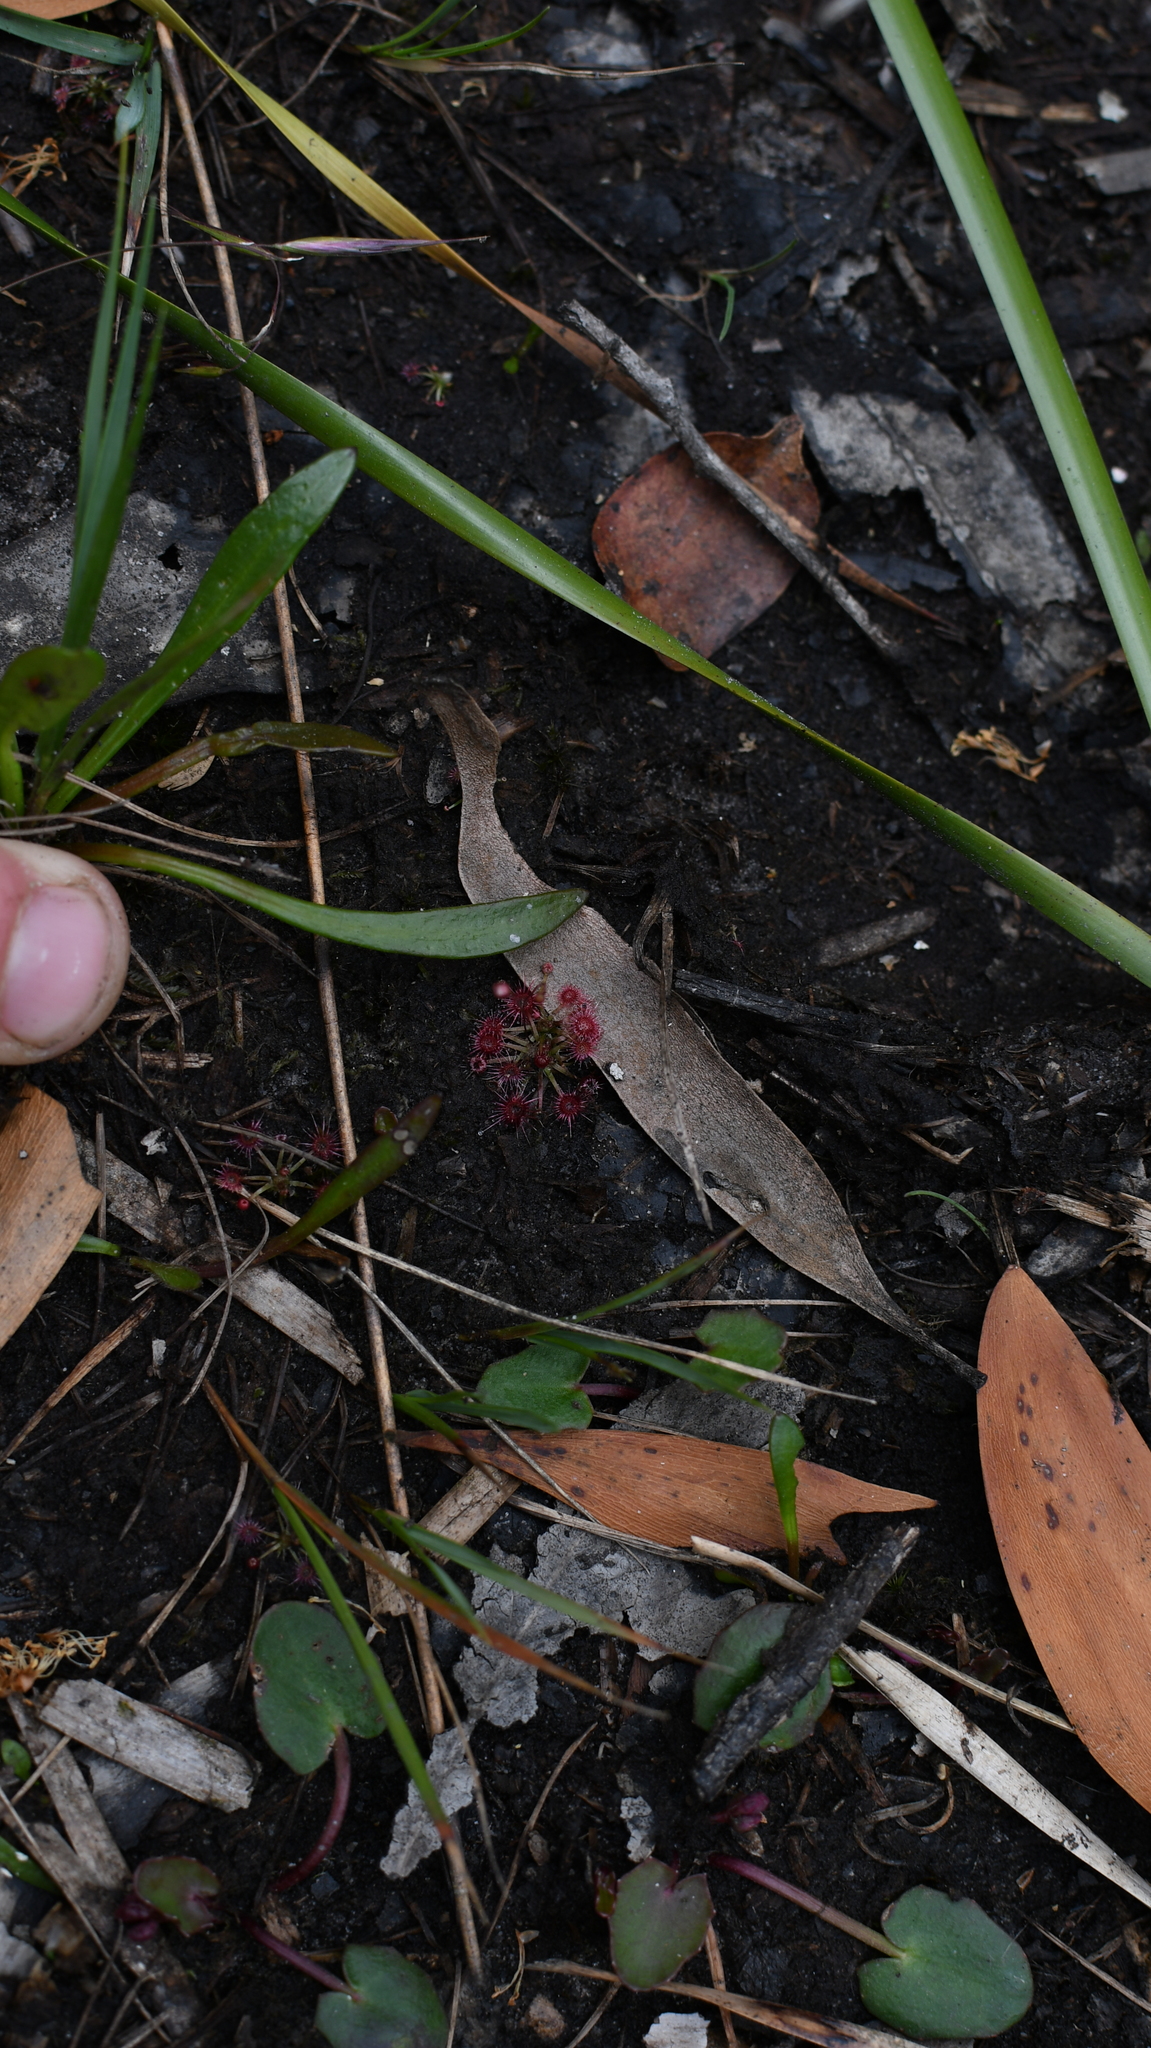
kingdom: Plantae
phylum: Tracheophyta
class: Magnoliopsida
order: Caryophyllales
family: Droseraceae
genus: Drosera
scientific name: Drosera pygmaea
